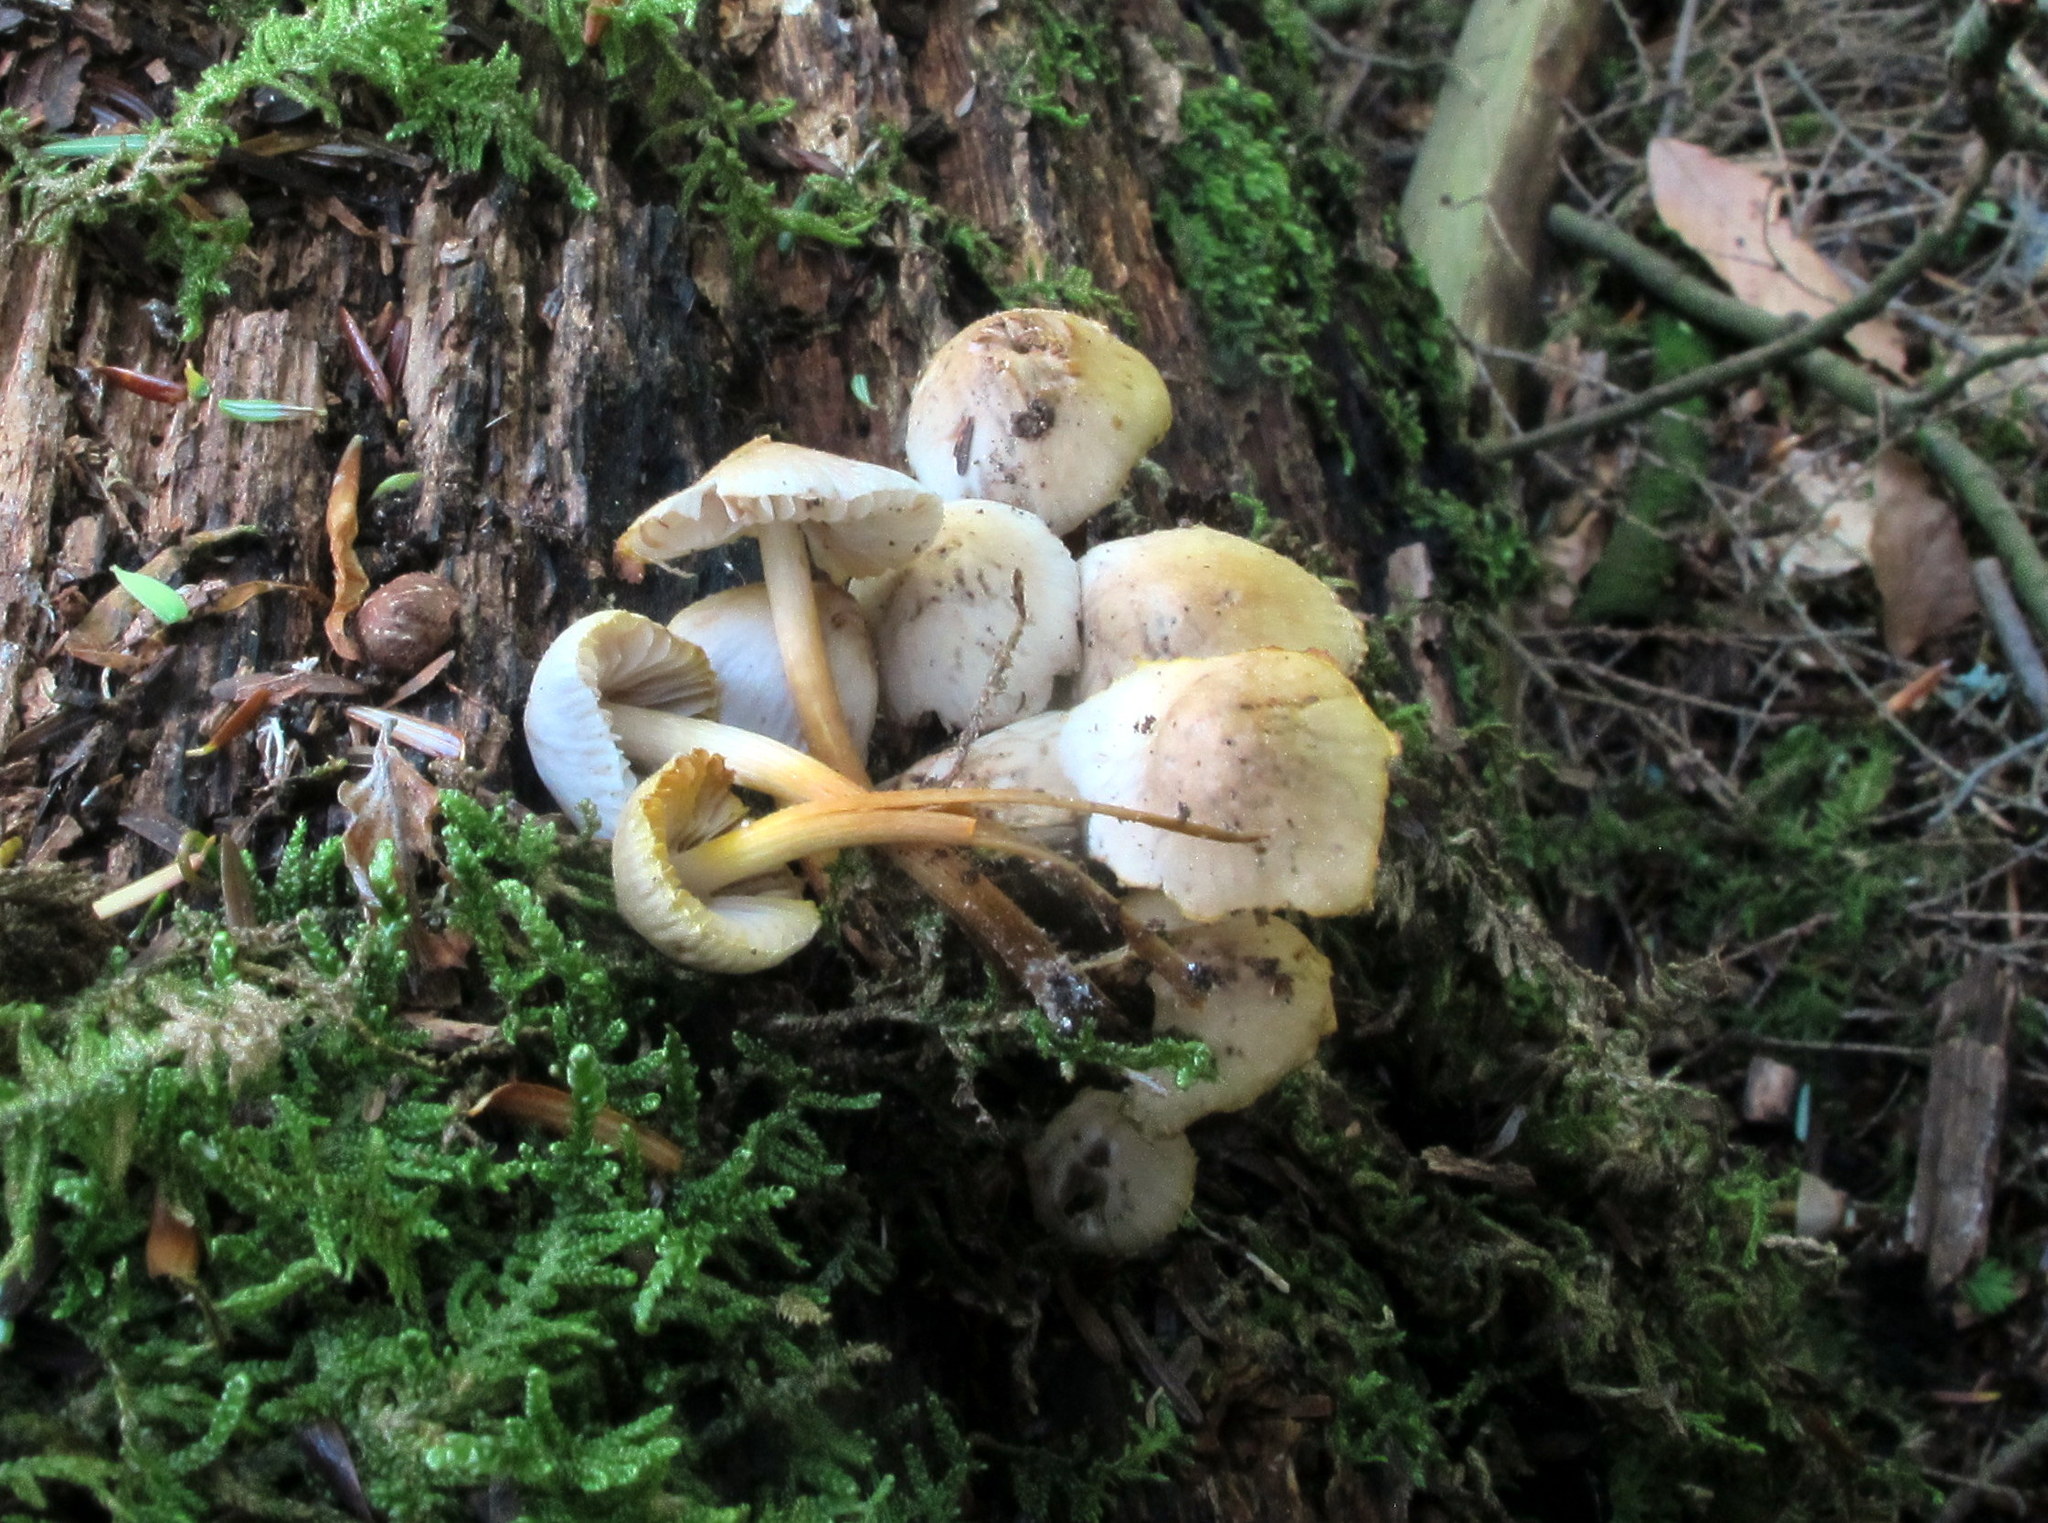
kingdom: Fungi
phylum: Basidiomycota
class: Agaricomycetes
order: Agaricales
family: Mycenaceae
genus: Mycena
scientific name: Mycena inclinata
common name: Clustered bonnet
